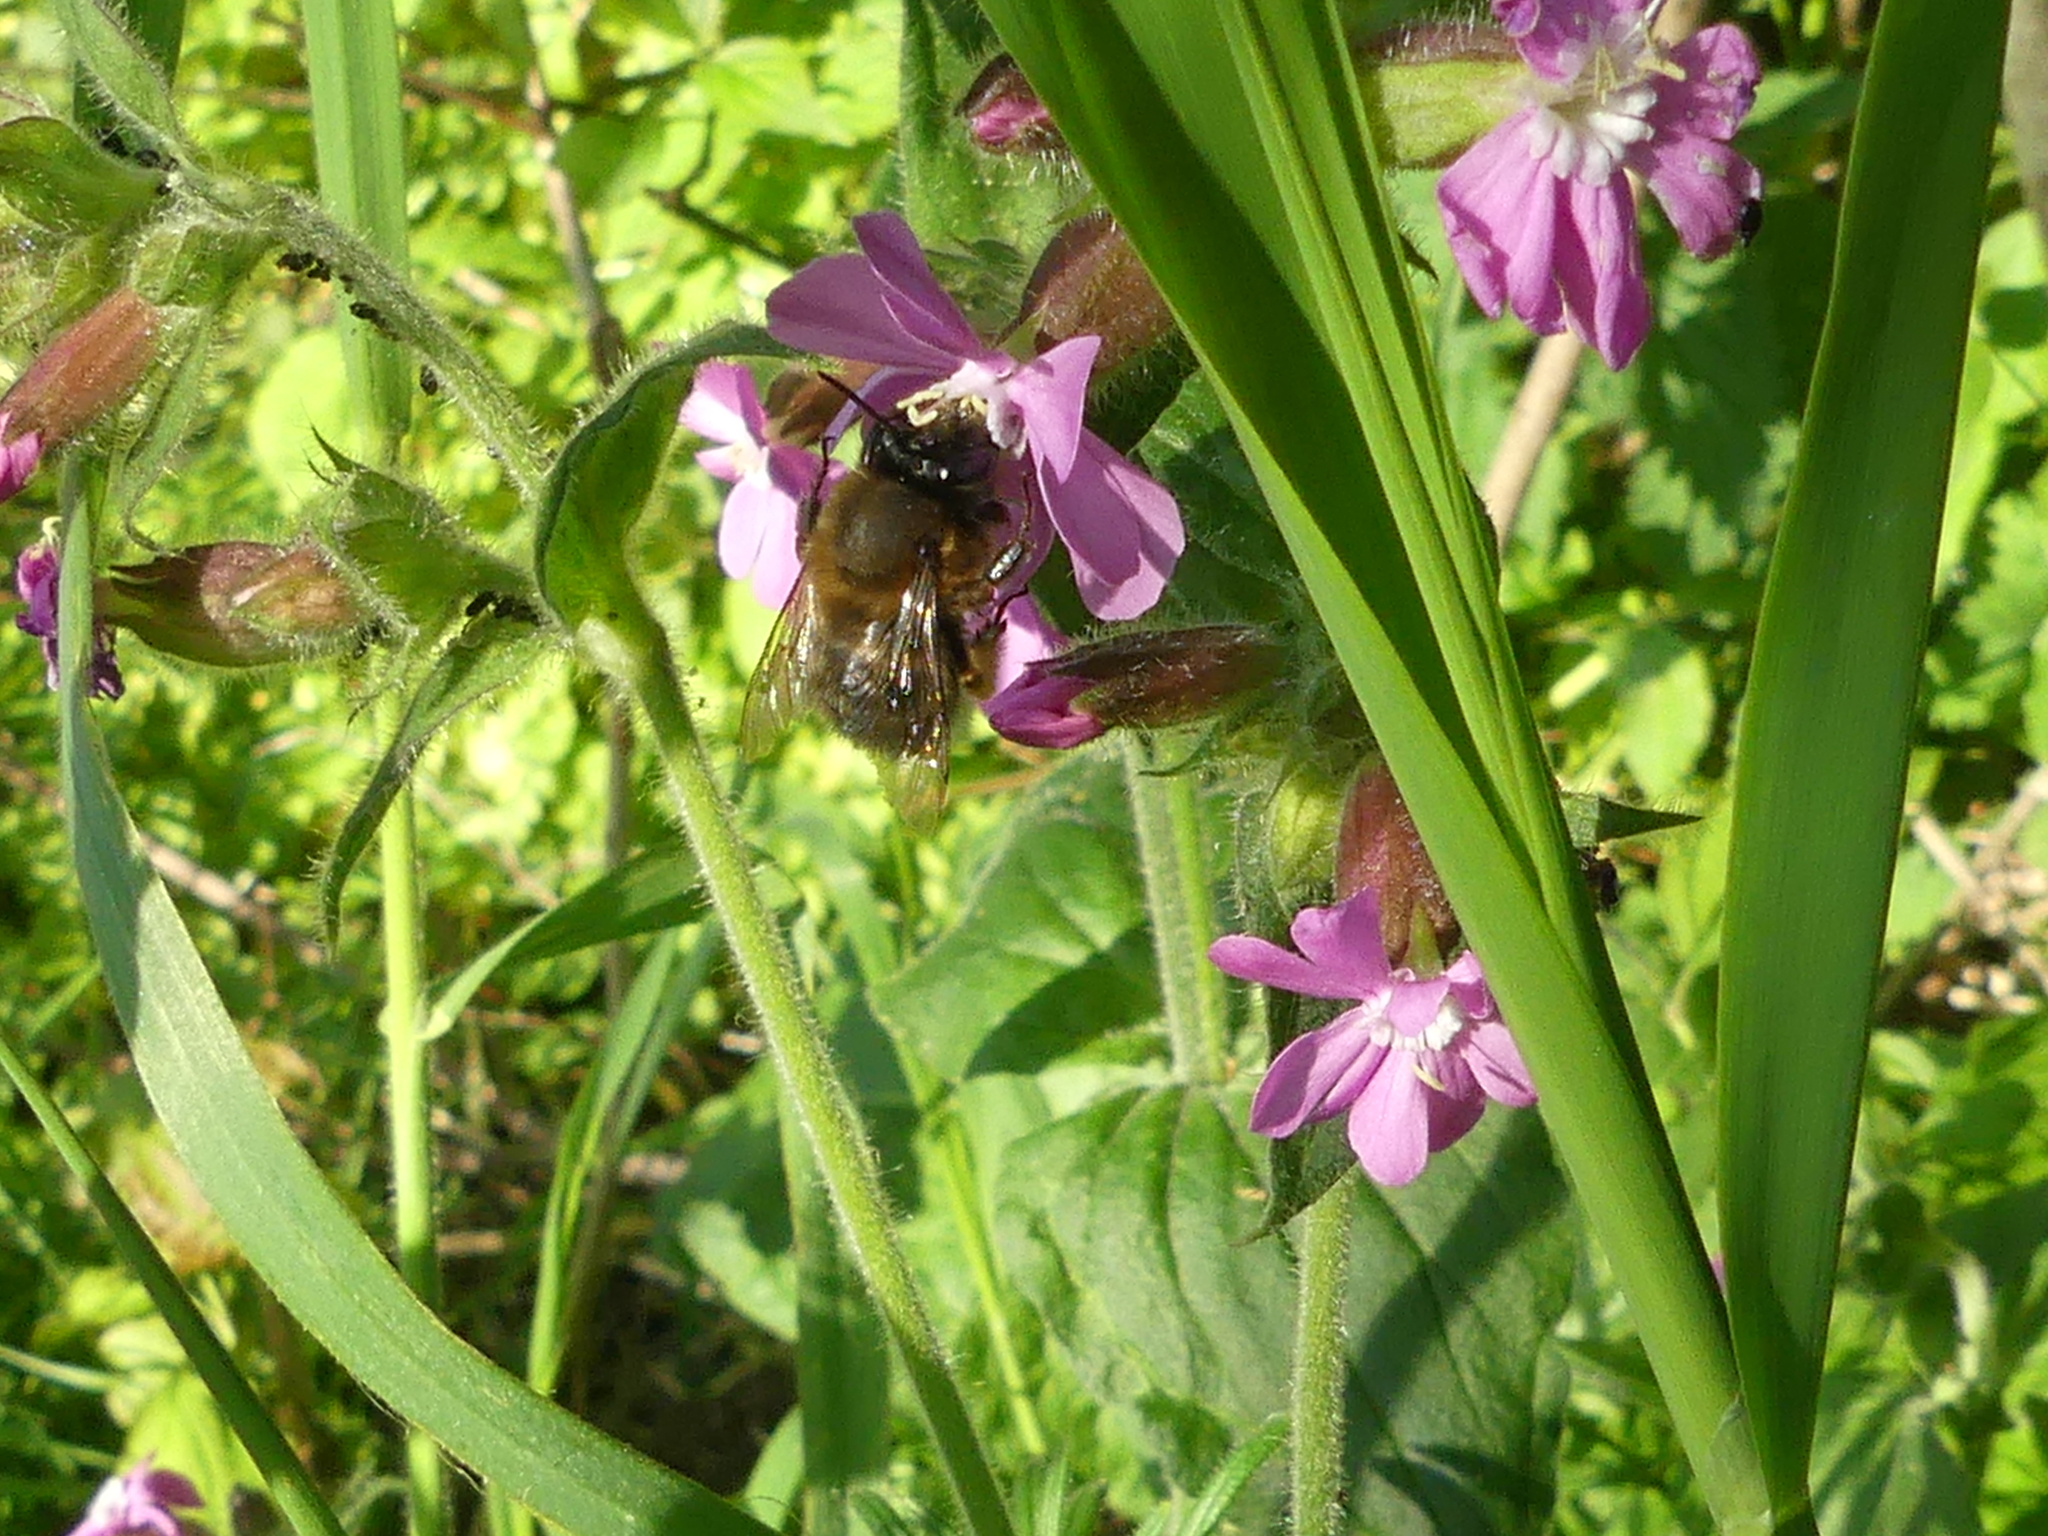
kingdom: Animalia
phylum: Arthropoda
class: Insecta
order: Hymenoptera
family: Apidae
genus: Anthophora
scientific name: Anthophora plumipes
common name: Hairy-footed flower bee
